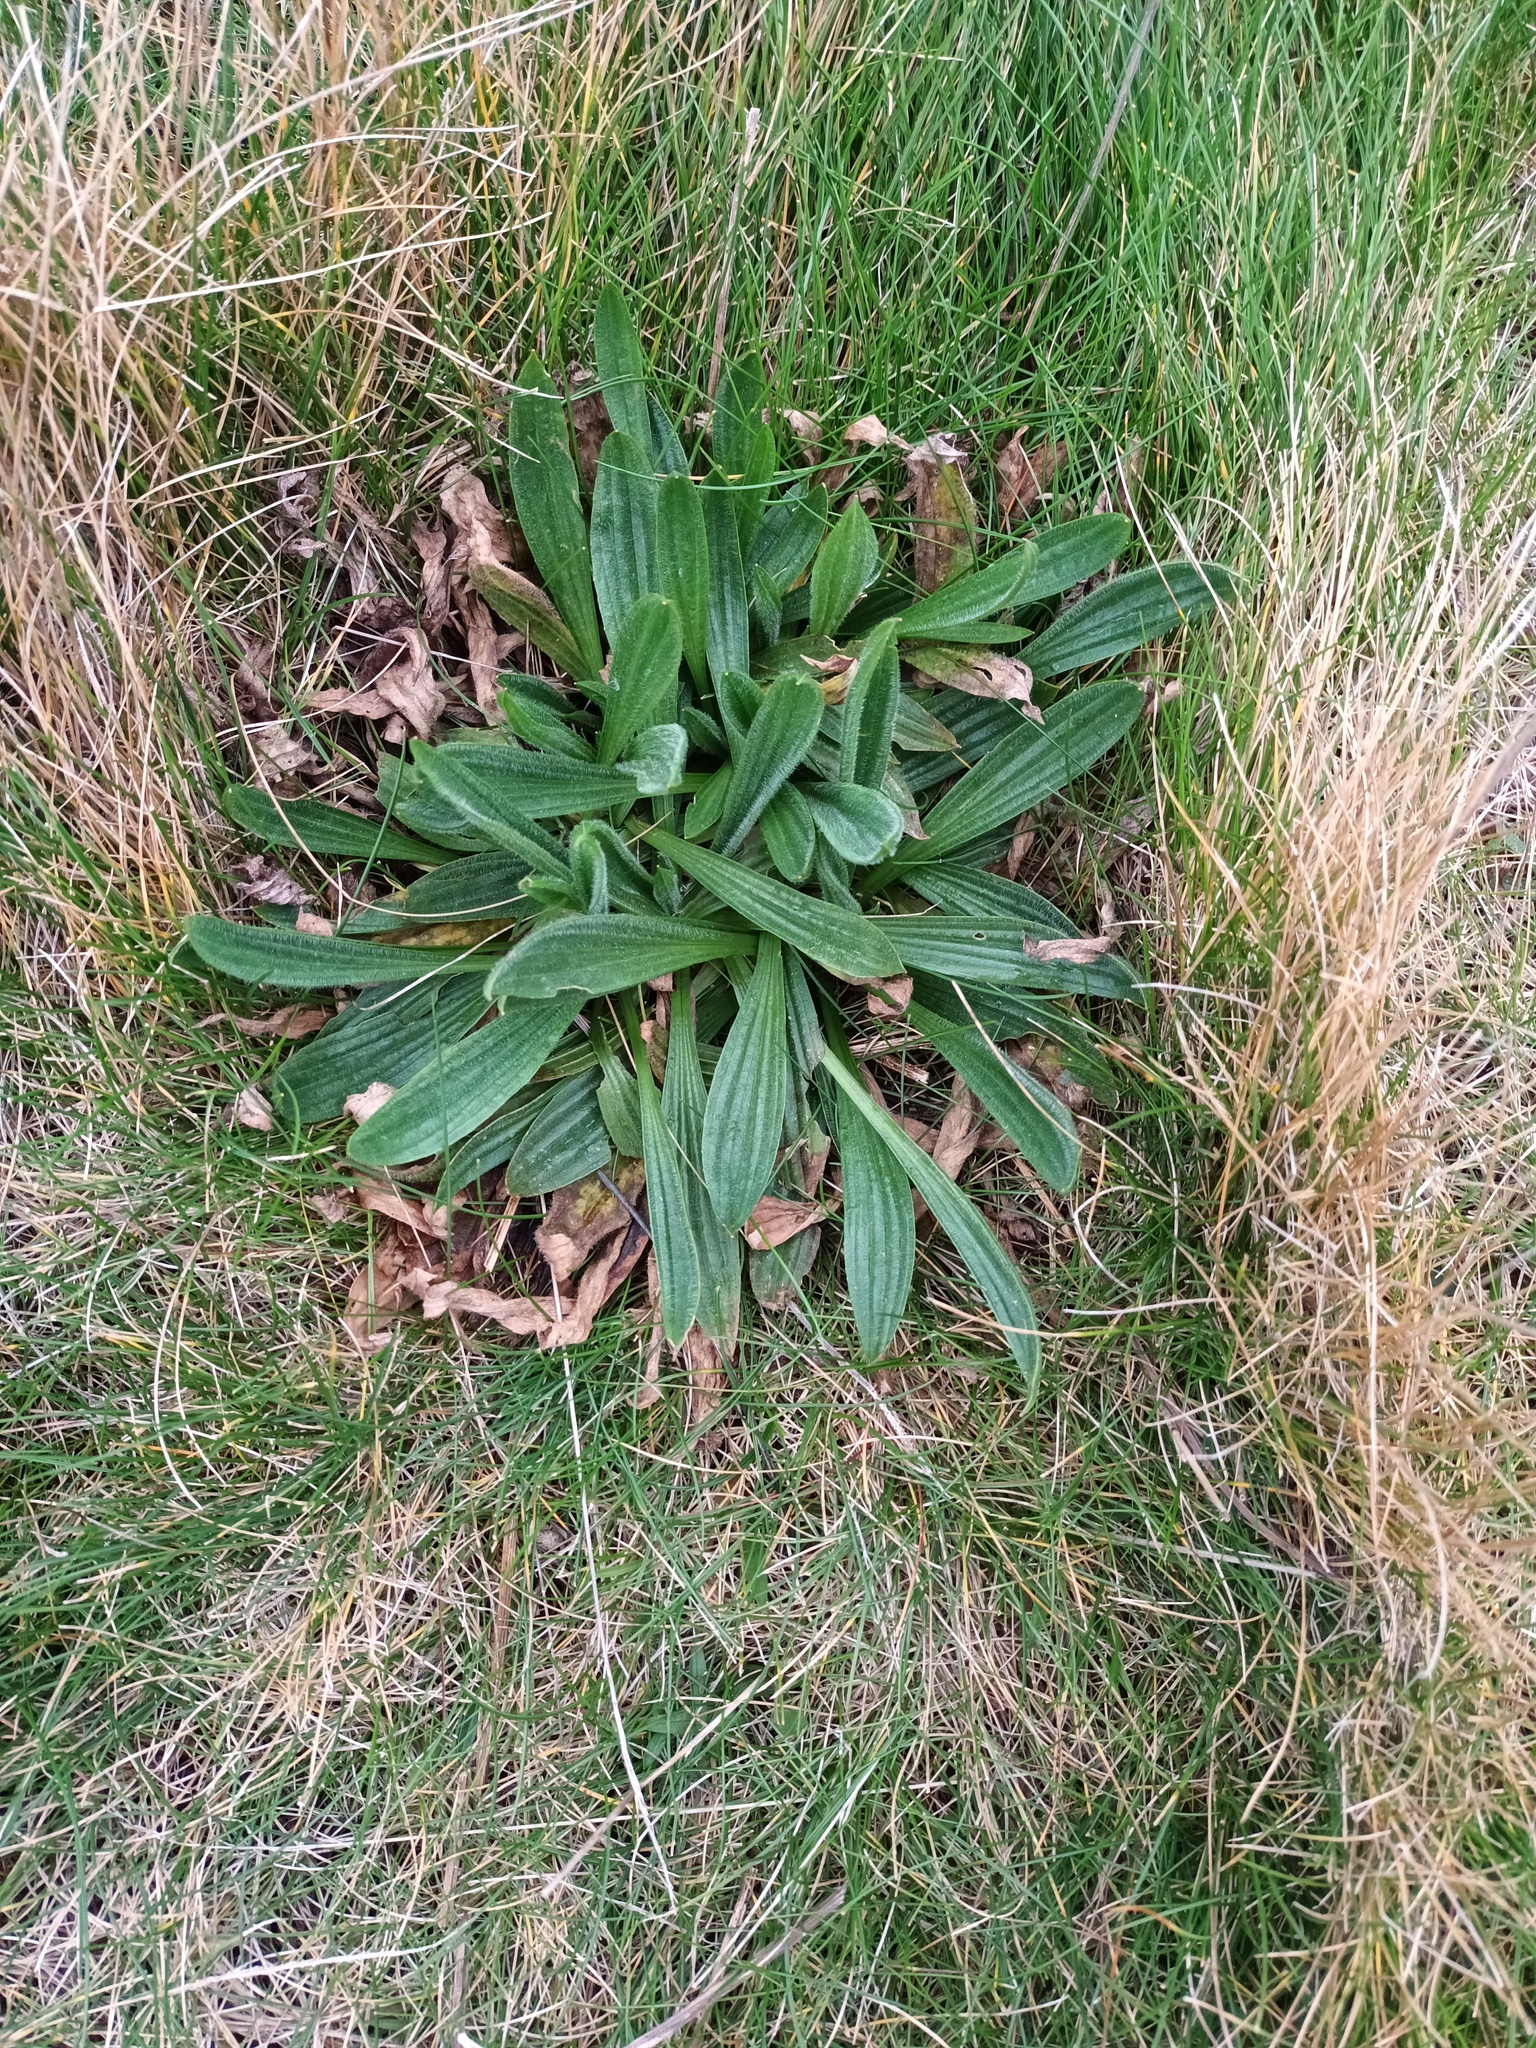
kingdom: Plantae
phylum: Tracheophyta
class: Magnoliopsida
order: Lamiales
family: Plantaginaceae
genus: Plantago
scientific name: Plantago lanceolata
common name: Ribwort plantain
